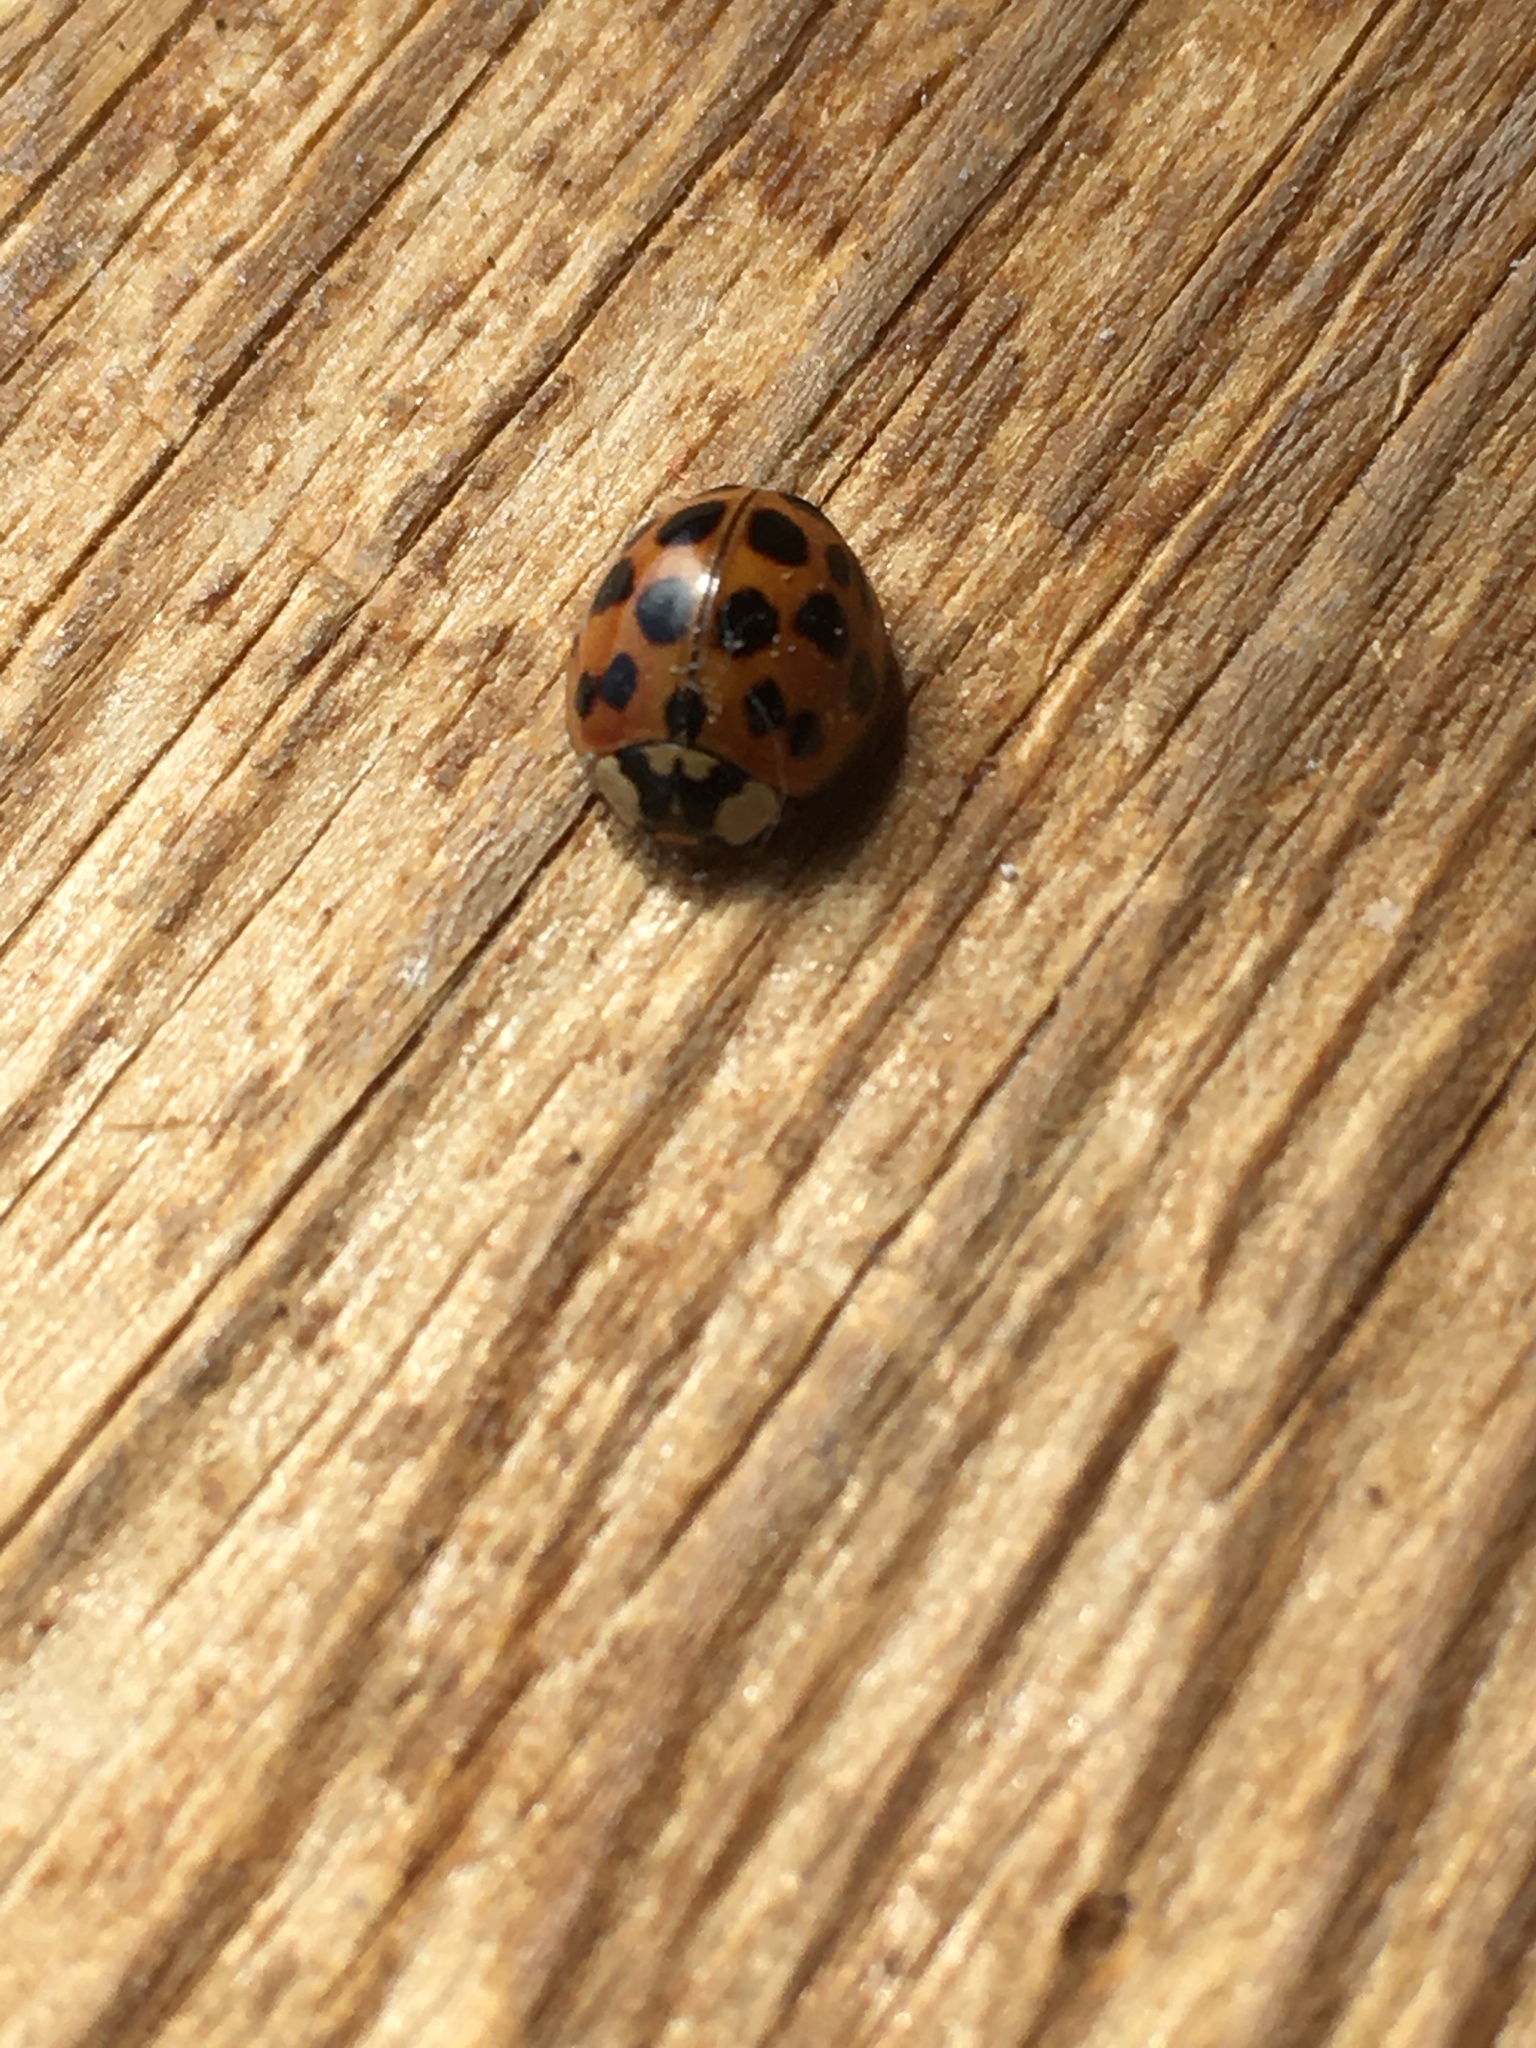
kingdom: Animalia
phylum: Arthropoda
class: Insecta
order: Coleoptera
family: Coccinellidae
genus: Harmonia
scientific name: Harmonia axyridis
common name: Harlequin ladybird
